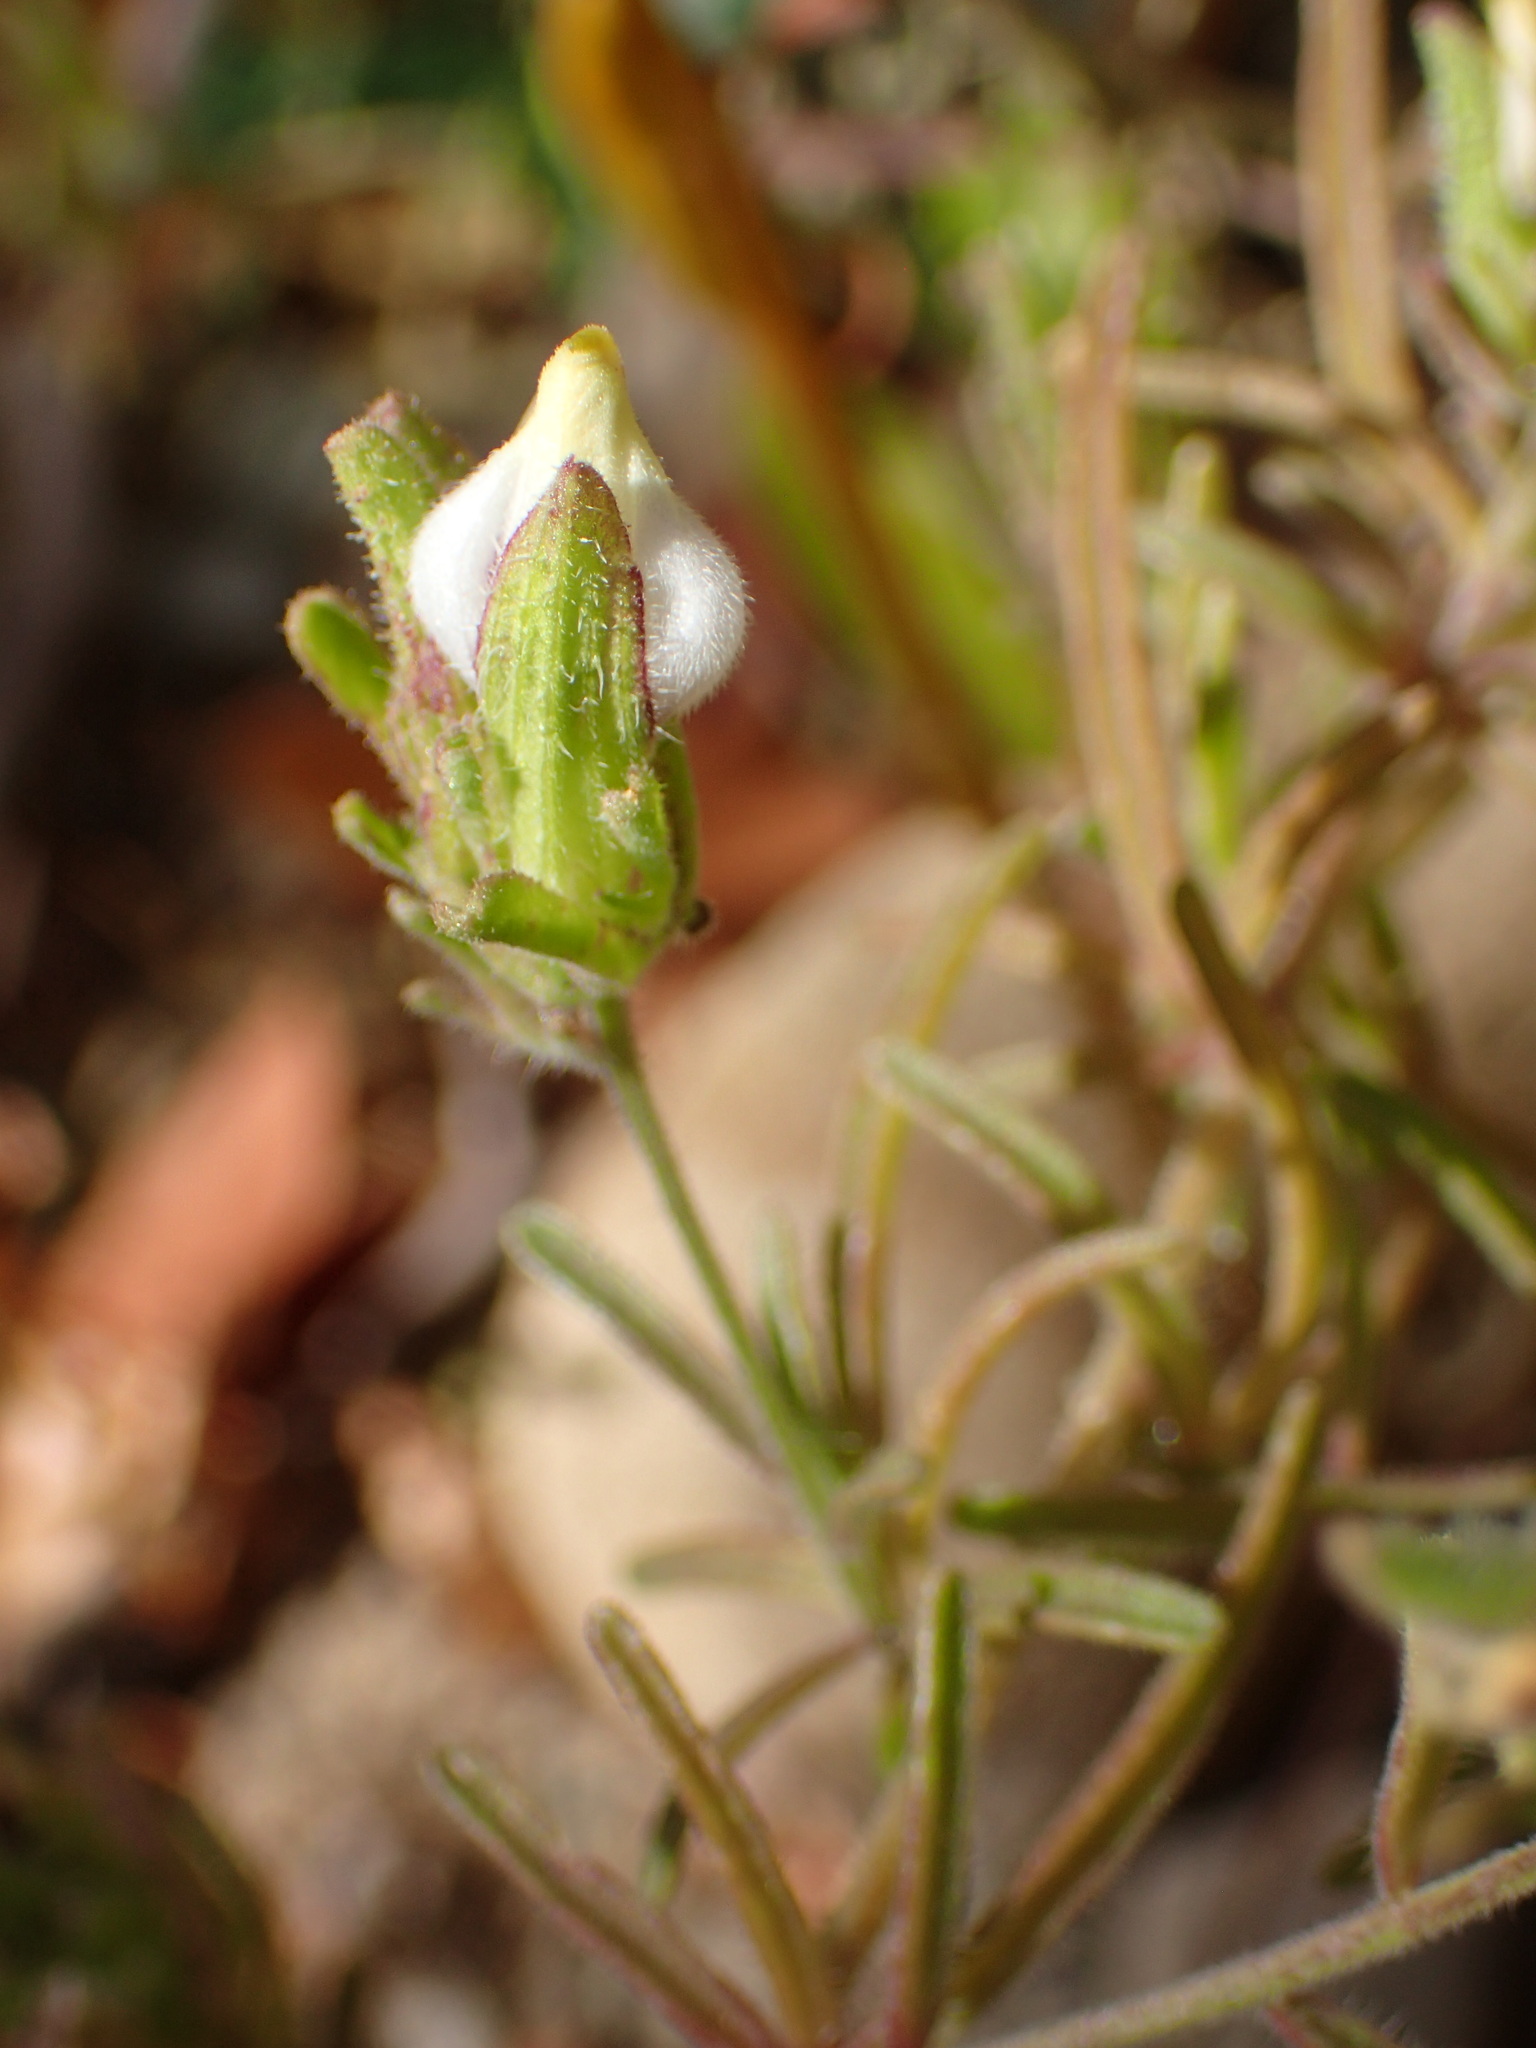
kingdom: Plantae
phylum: Tracheophyta
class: Magnoliopsida
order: Lamiales
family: Orobanchaceae
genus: Cordylanthus
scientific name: Cordylanthus rigidus
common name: Stiff-branch bird's-beak
